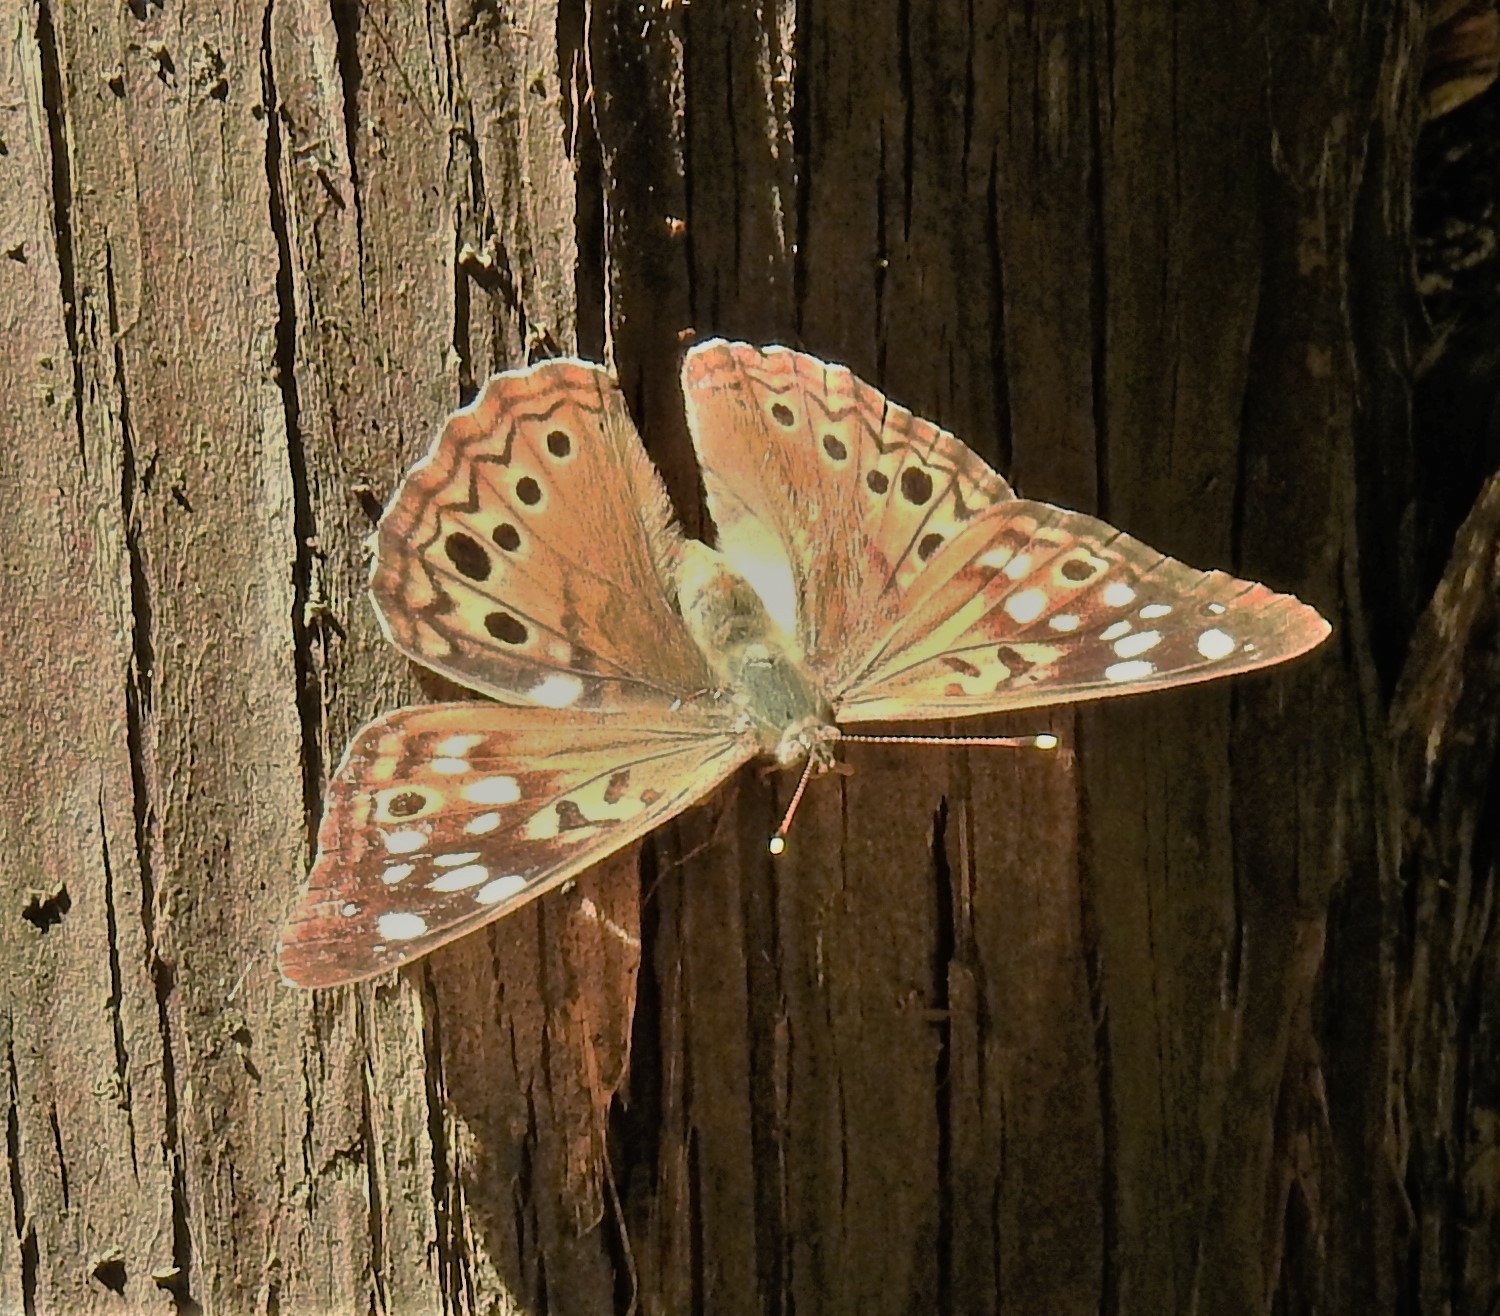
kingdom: Animalia
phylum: Arthropoda
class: Insecta
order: Lepidoptera
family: Nymphalidae
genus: Asterocampa
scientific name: Asterocampa celtis
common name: Hackberry emperor
